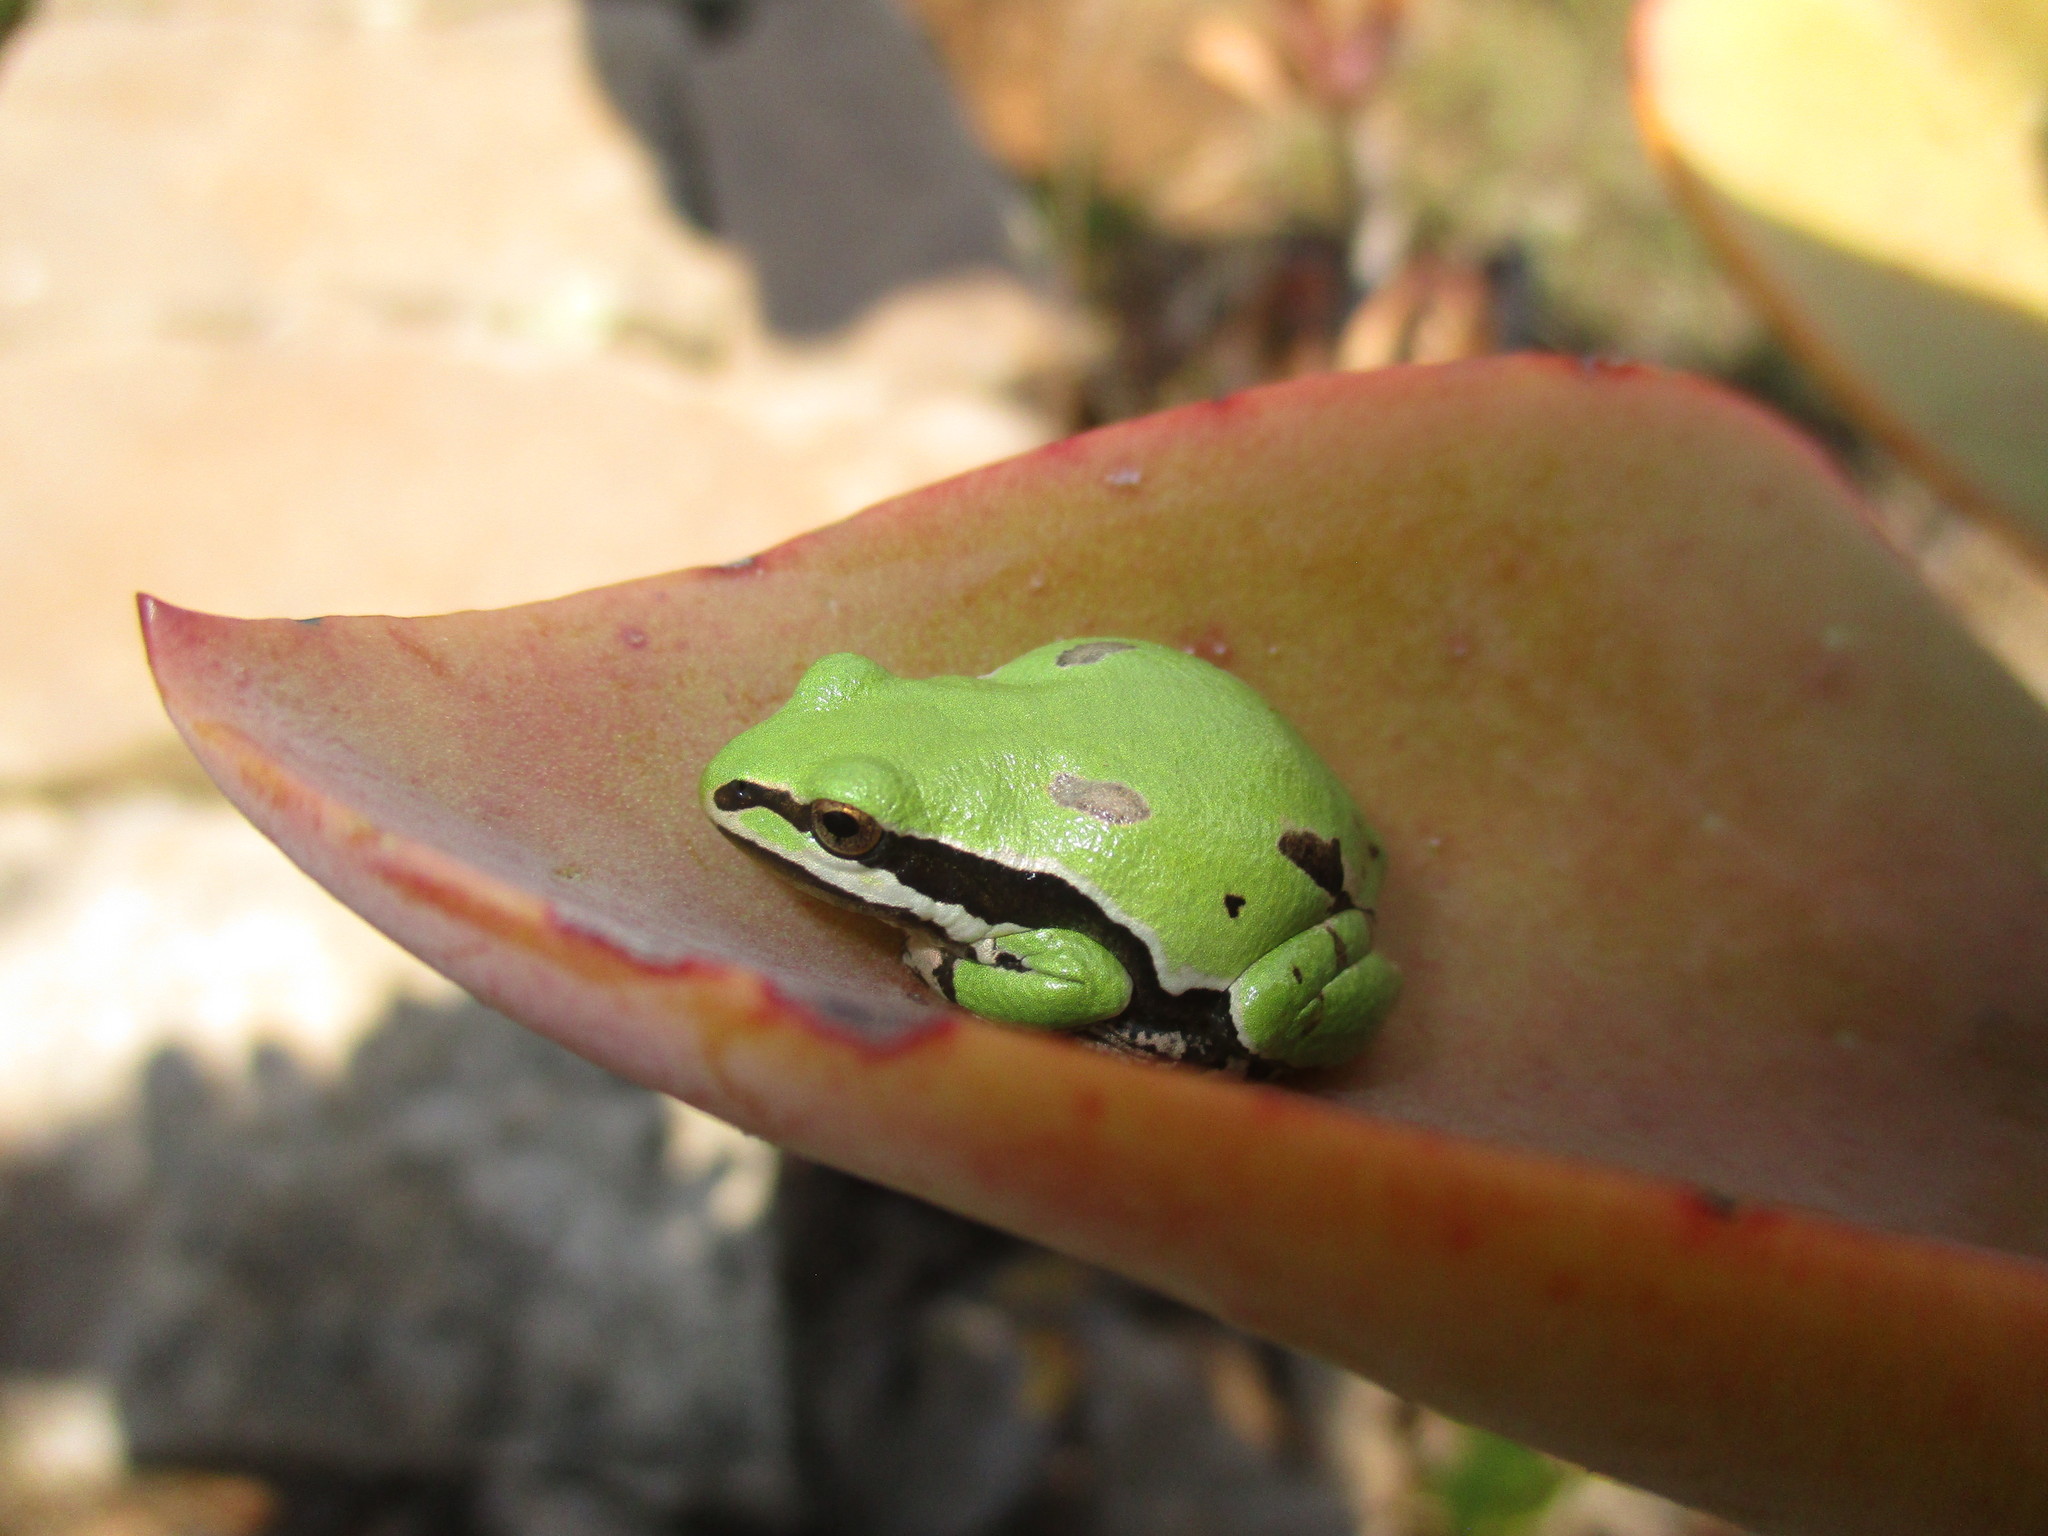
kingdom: Animalia
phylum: Chordata
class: Amphibia
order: Anura
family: Hylidae
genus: Dryophytes
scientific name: Dryophytes eximius
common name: Mountain treefrog
